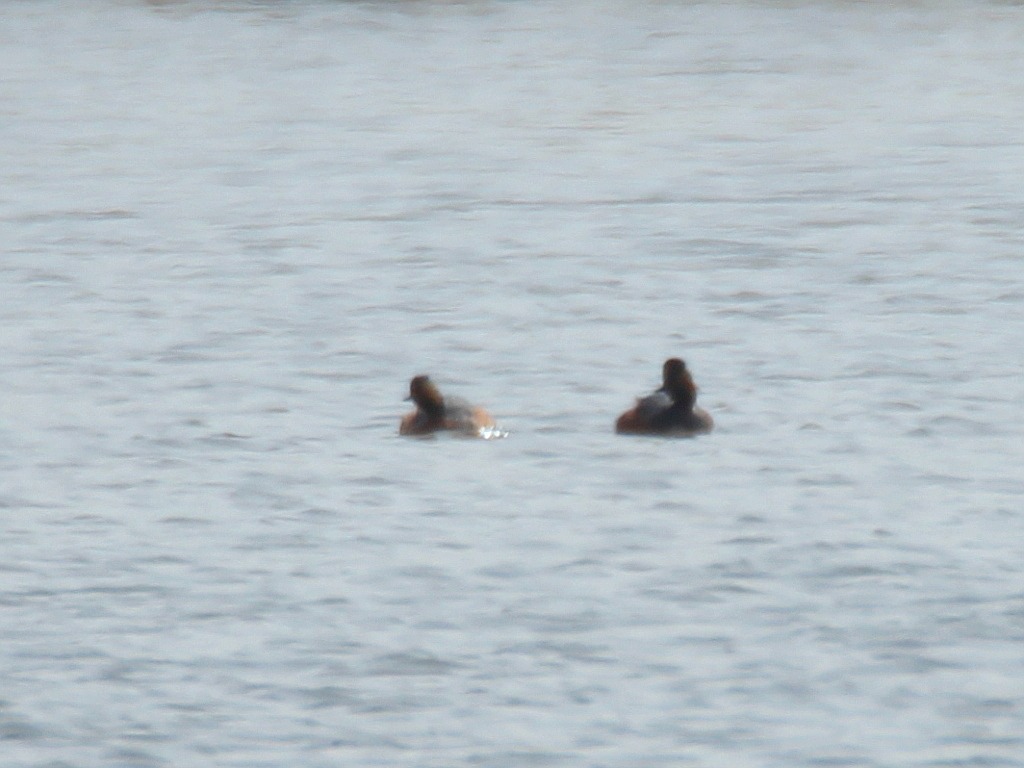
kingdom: Animalia
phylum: Chordata
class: Aves
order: Podicipediformes
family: Podicipedidae
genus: Podiceps
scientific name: Podiceps nigricollis
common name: Black-necked grebe
